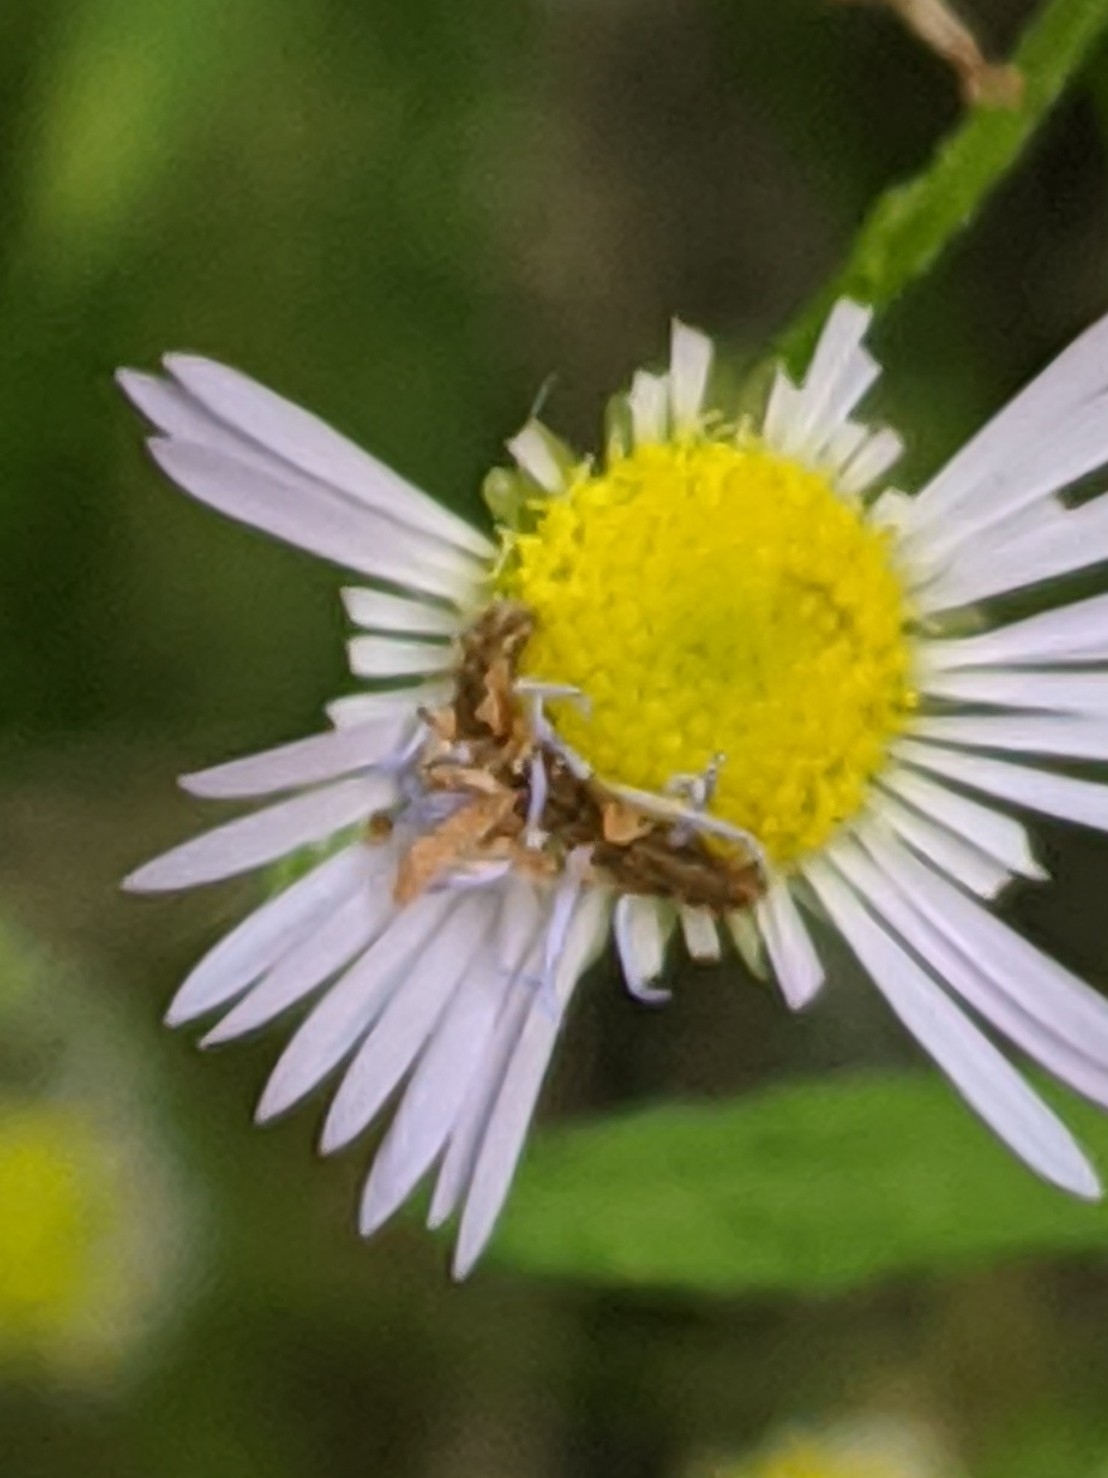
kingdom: Animalia
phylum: Arthropoda
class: Insecta
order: Lepidoptera
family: Geometridae
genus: Synchlora
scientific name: Synchlora aerata
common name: Wavy-lined emerald
